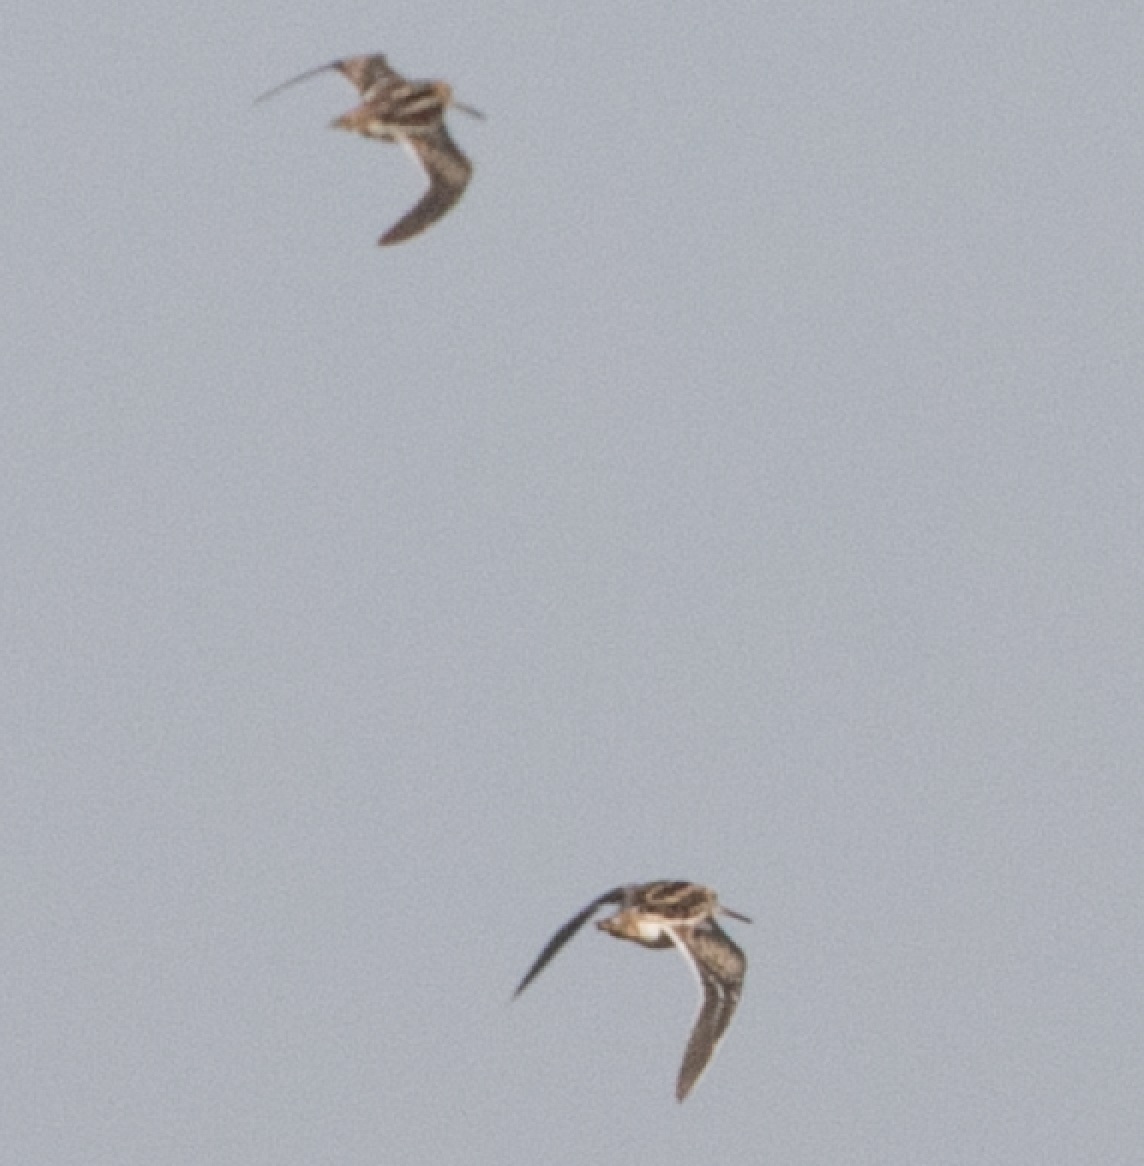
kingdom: Animalia
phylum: Chordata
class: Aves
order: Charadriiformes
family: Scolopacidae
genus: Gallinago
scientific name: Gallinago gallinago
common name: Common snipe
